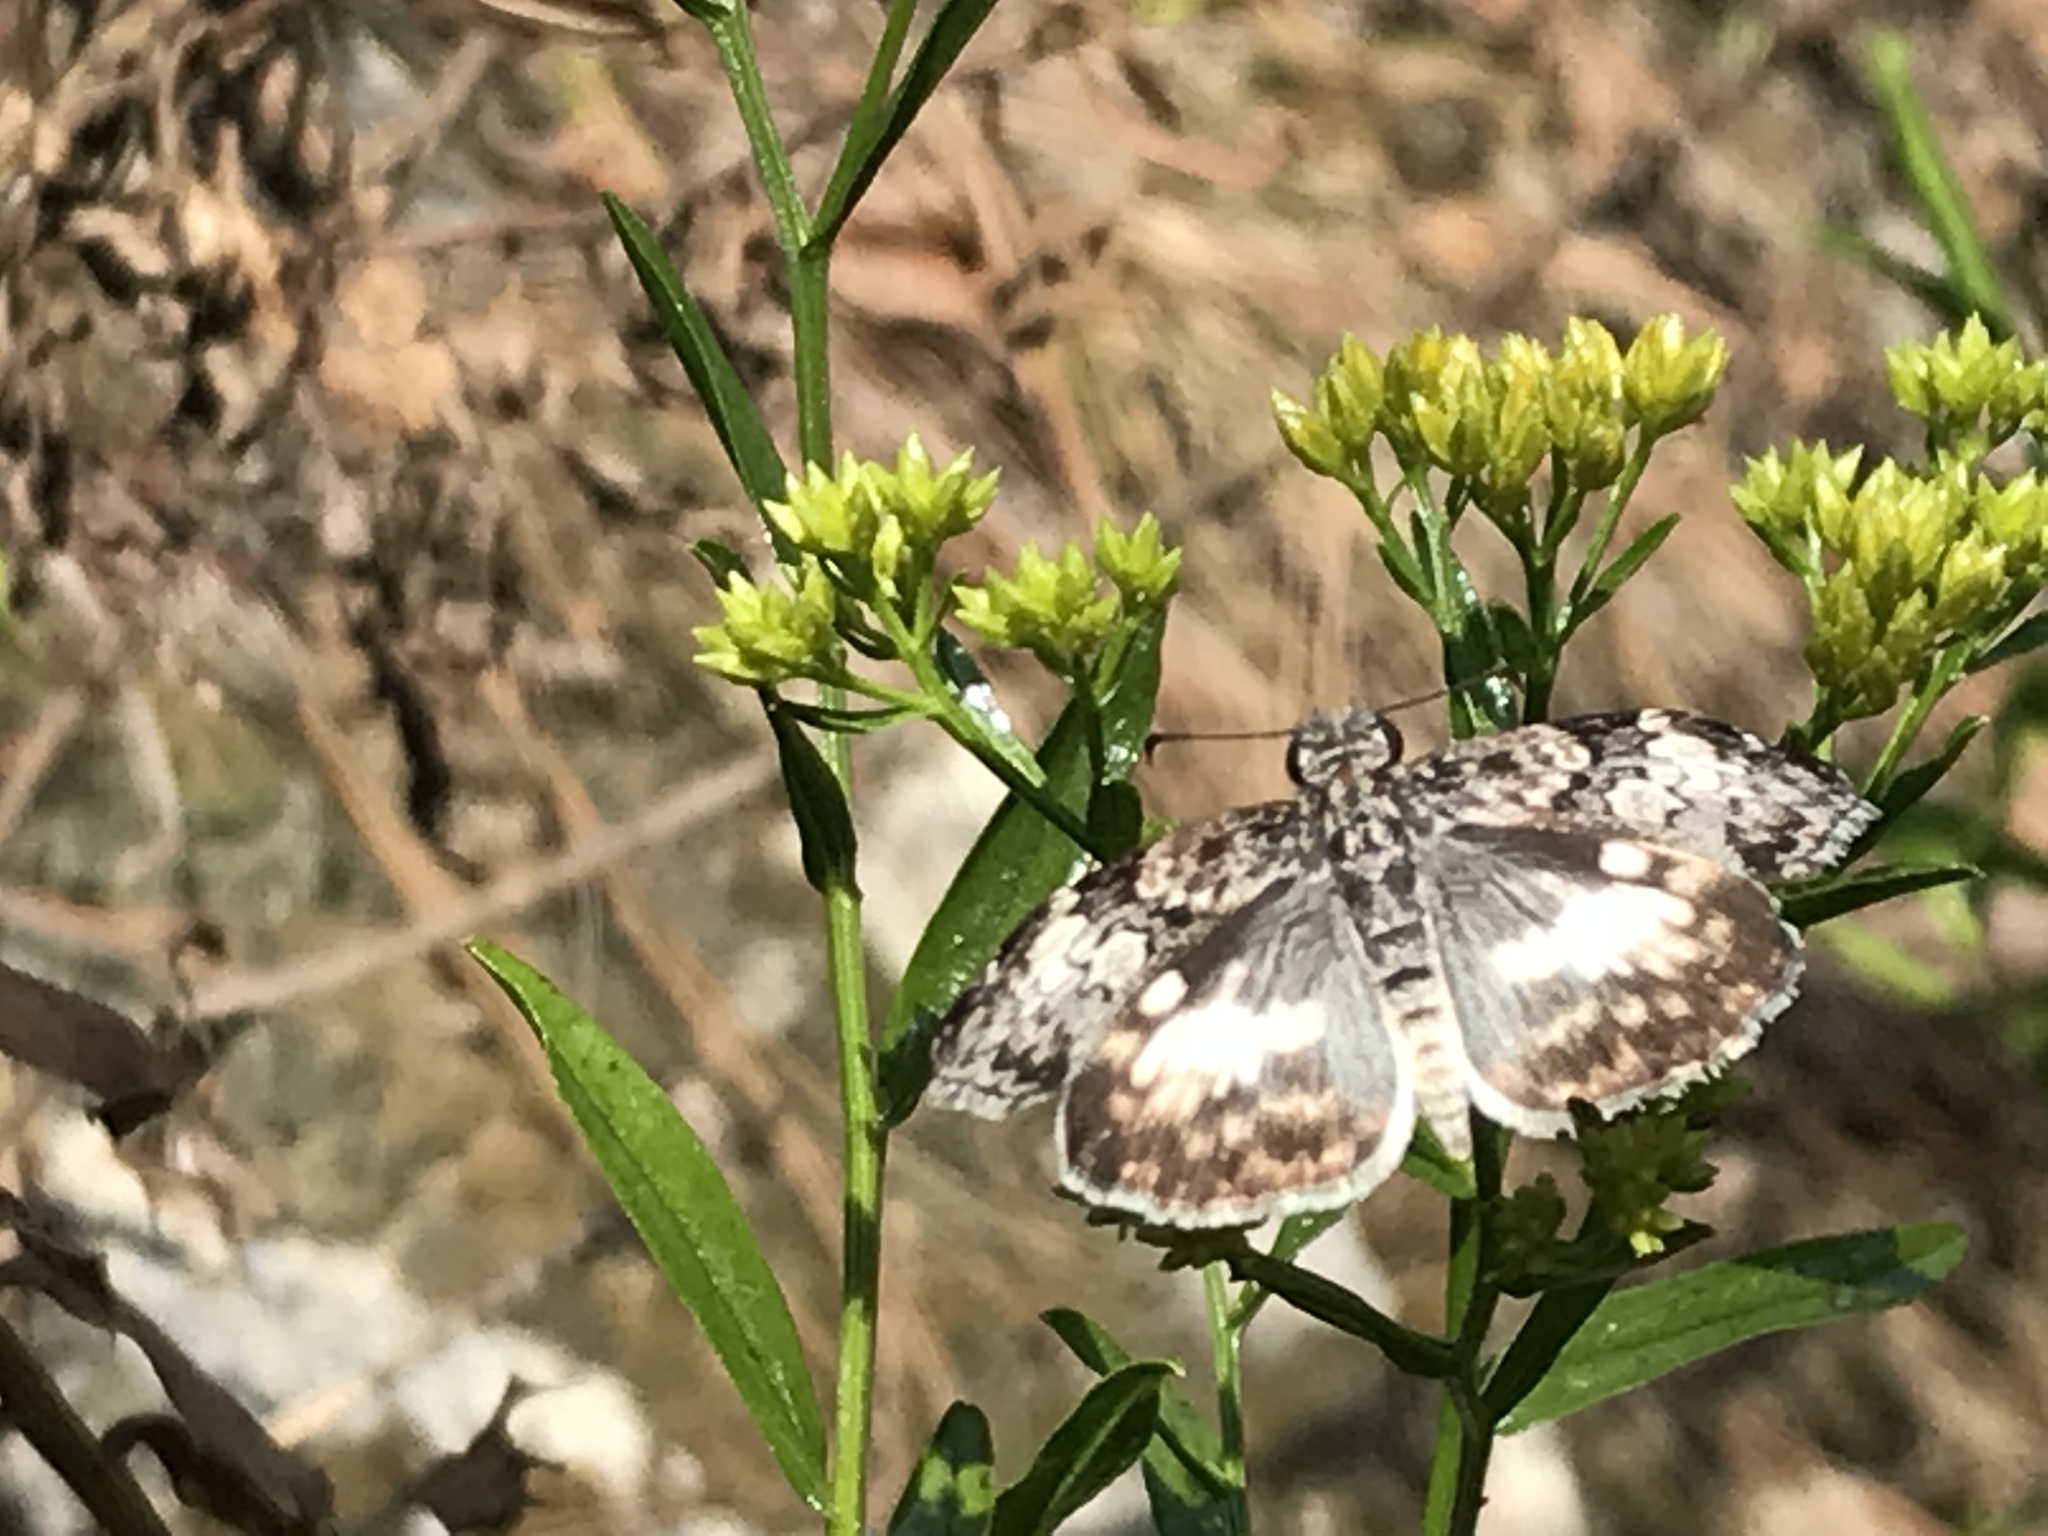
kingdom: Animalia
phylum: Arthropoda
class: Insecta
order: Lepidoptera
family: Hesperiidae
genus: Chiothion
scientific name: Chiothion georgina
